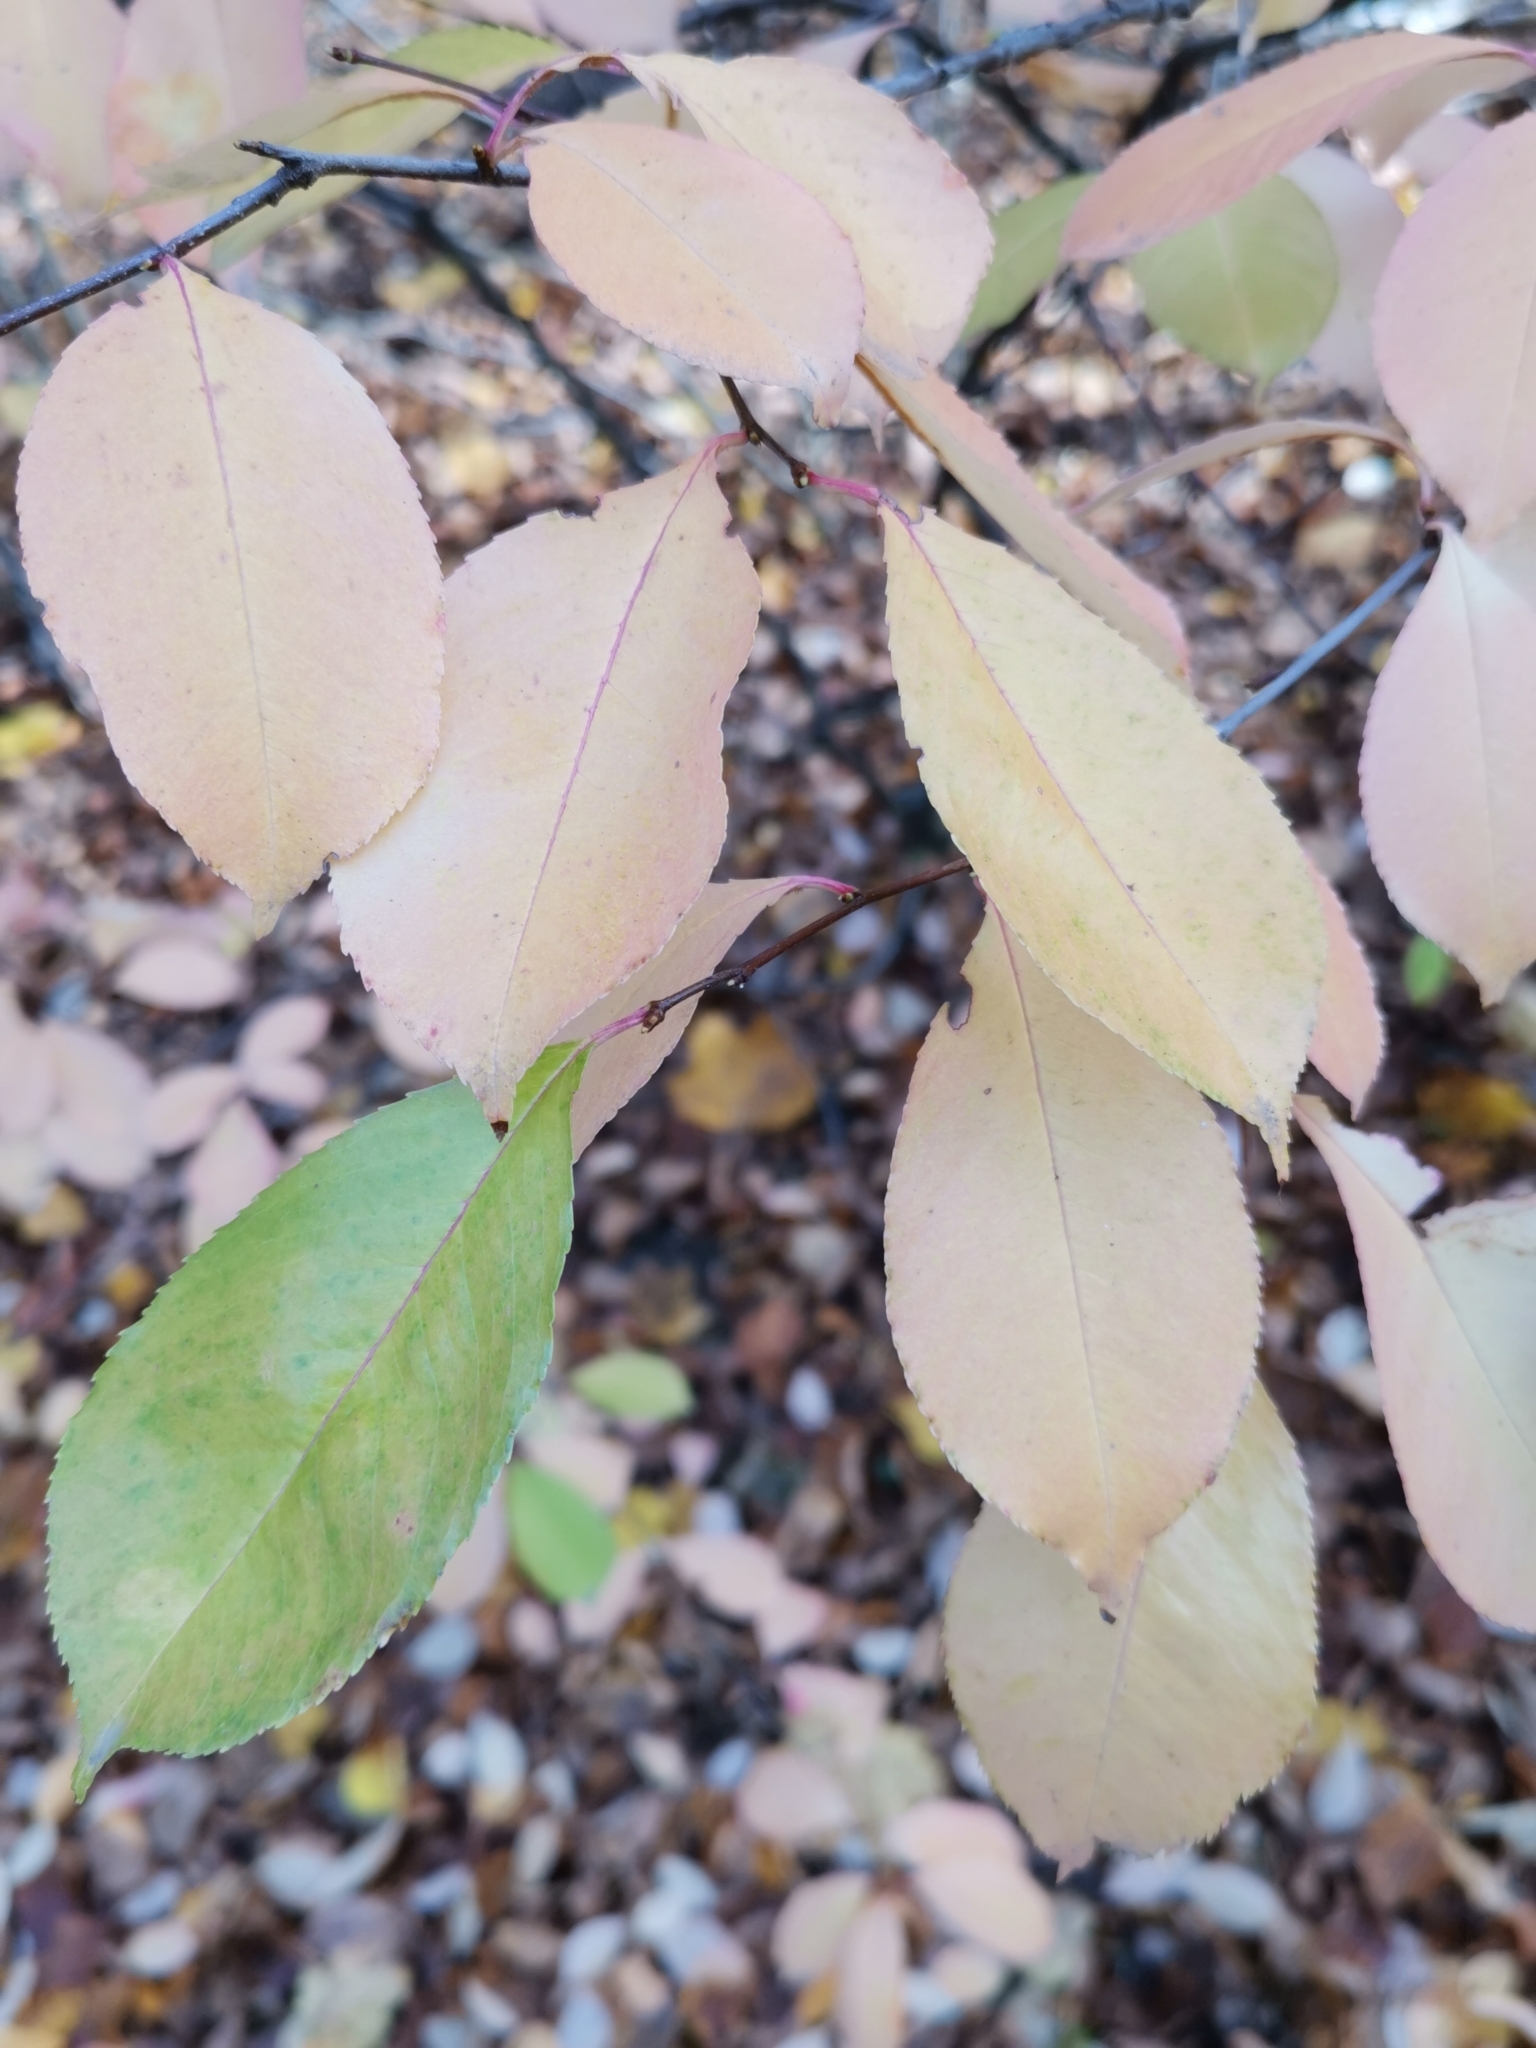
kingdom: Plantae
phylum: Tracheophyta
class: Magnoliopsida
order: Rosales
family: Rosaceae
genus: Prunus
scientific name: Prunus serotina
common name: Black cherry
